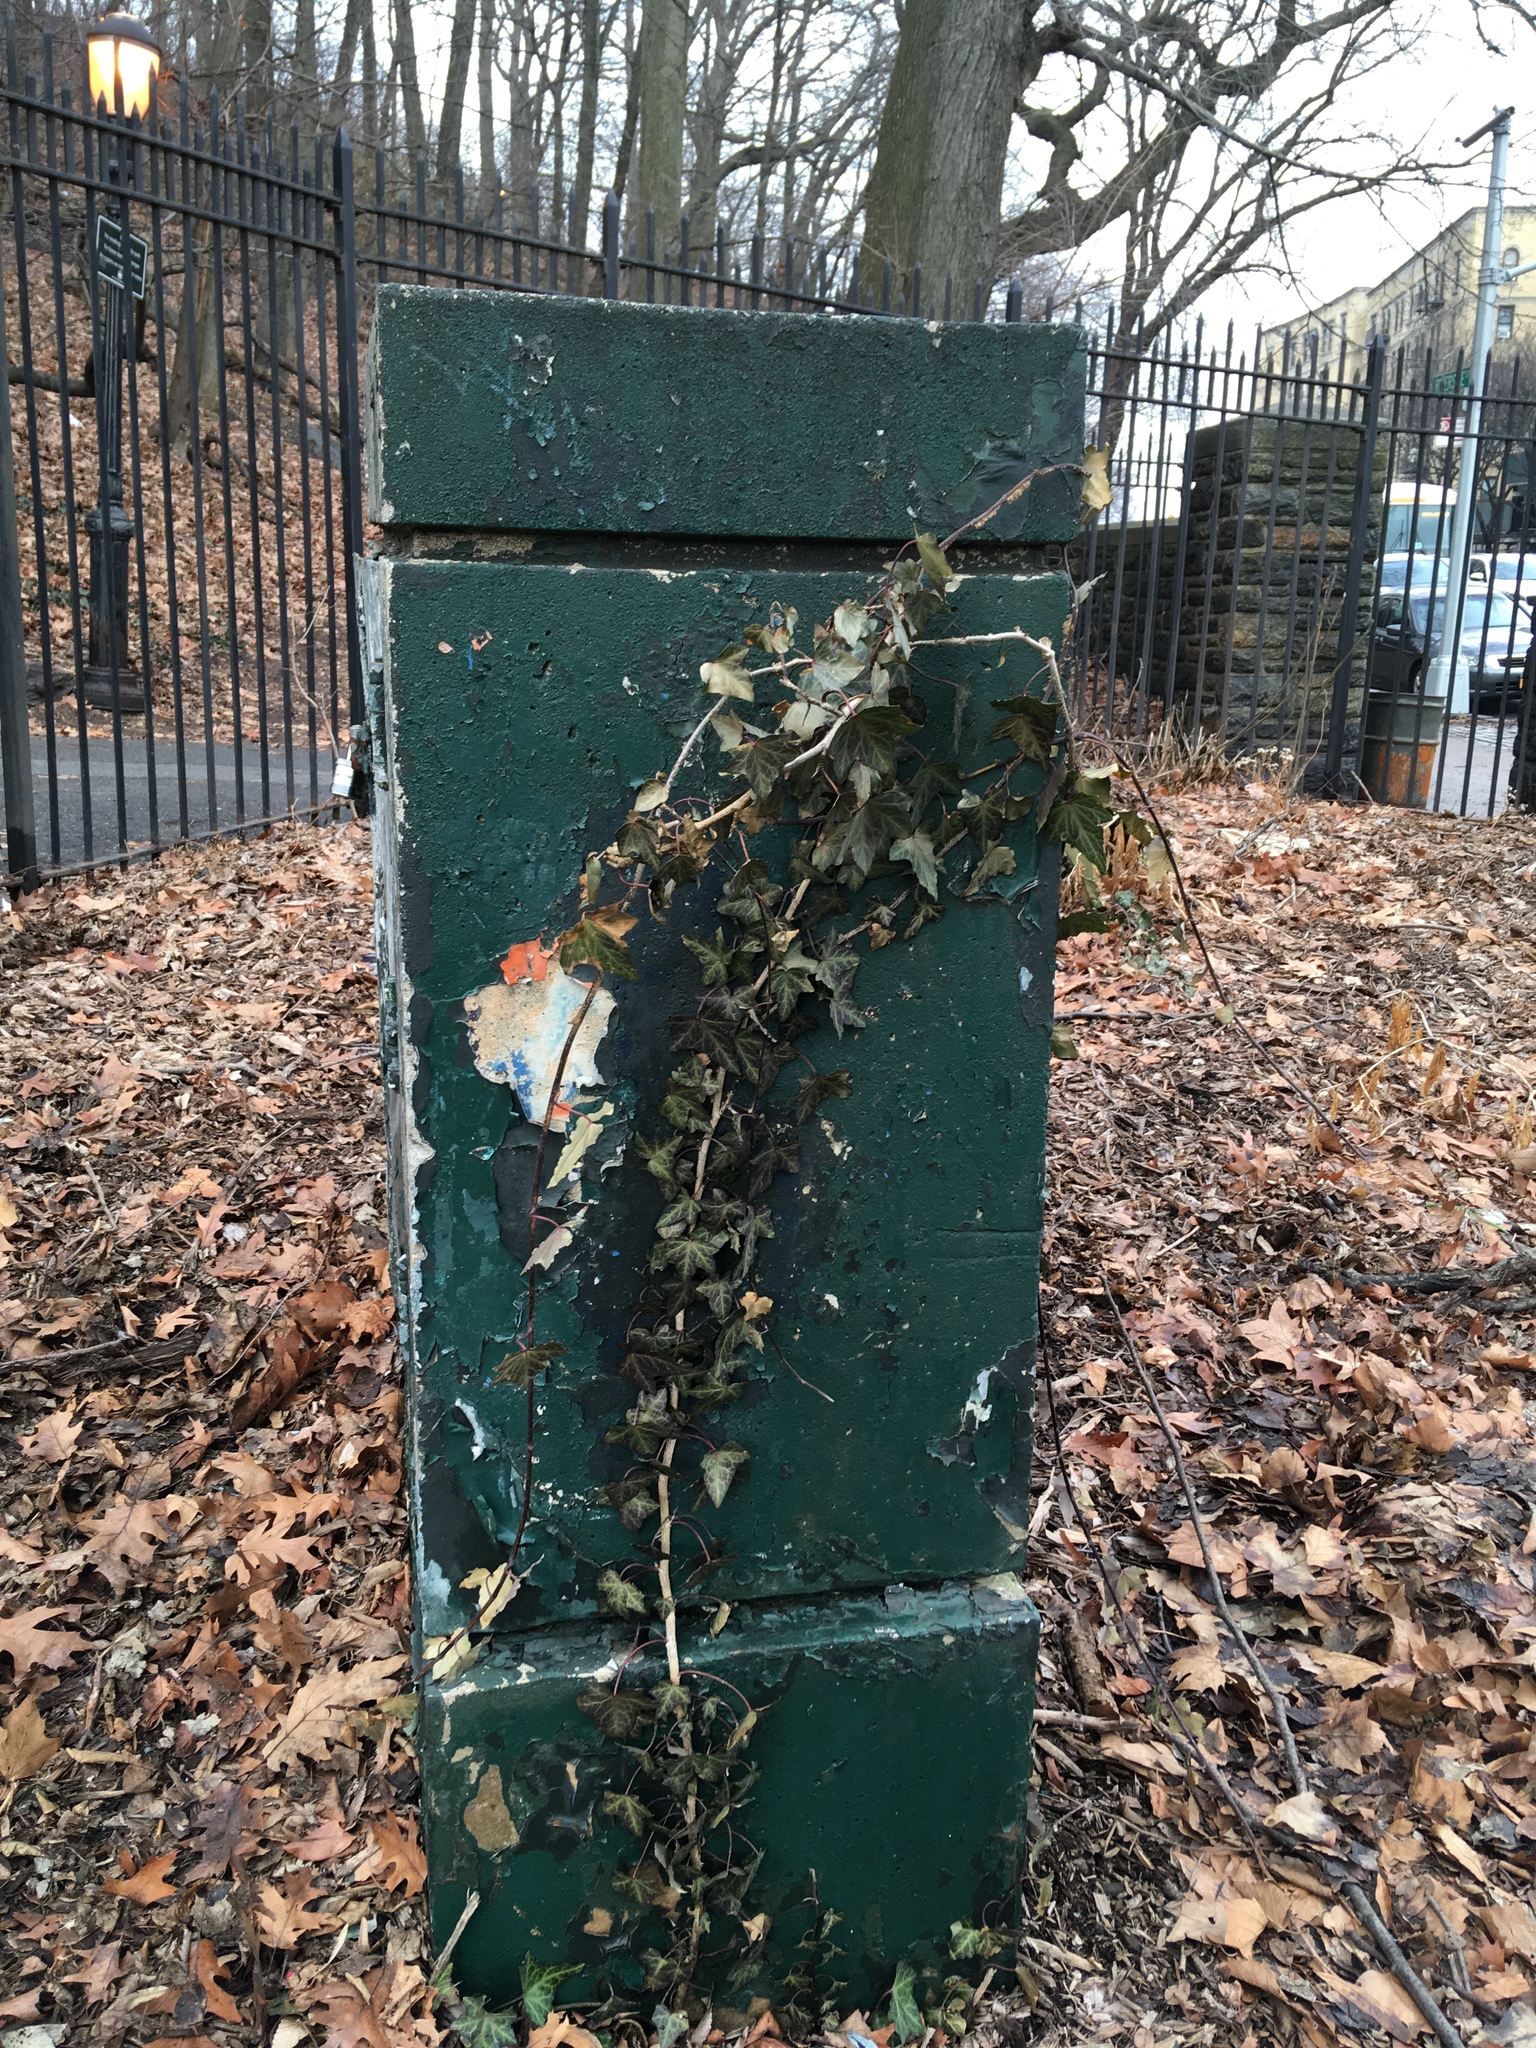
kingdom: Plantae
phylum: Tracheophyta
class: Magnoliopsida
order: Apiales
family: Araliaceae
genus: Hedera
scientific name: Hedera helix
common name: Ivy
